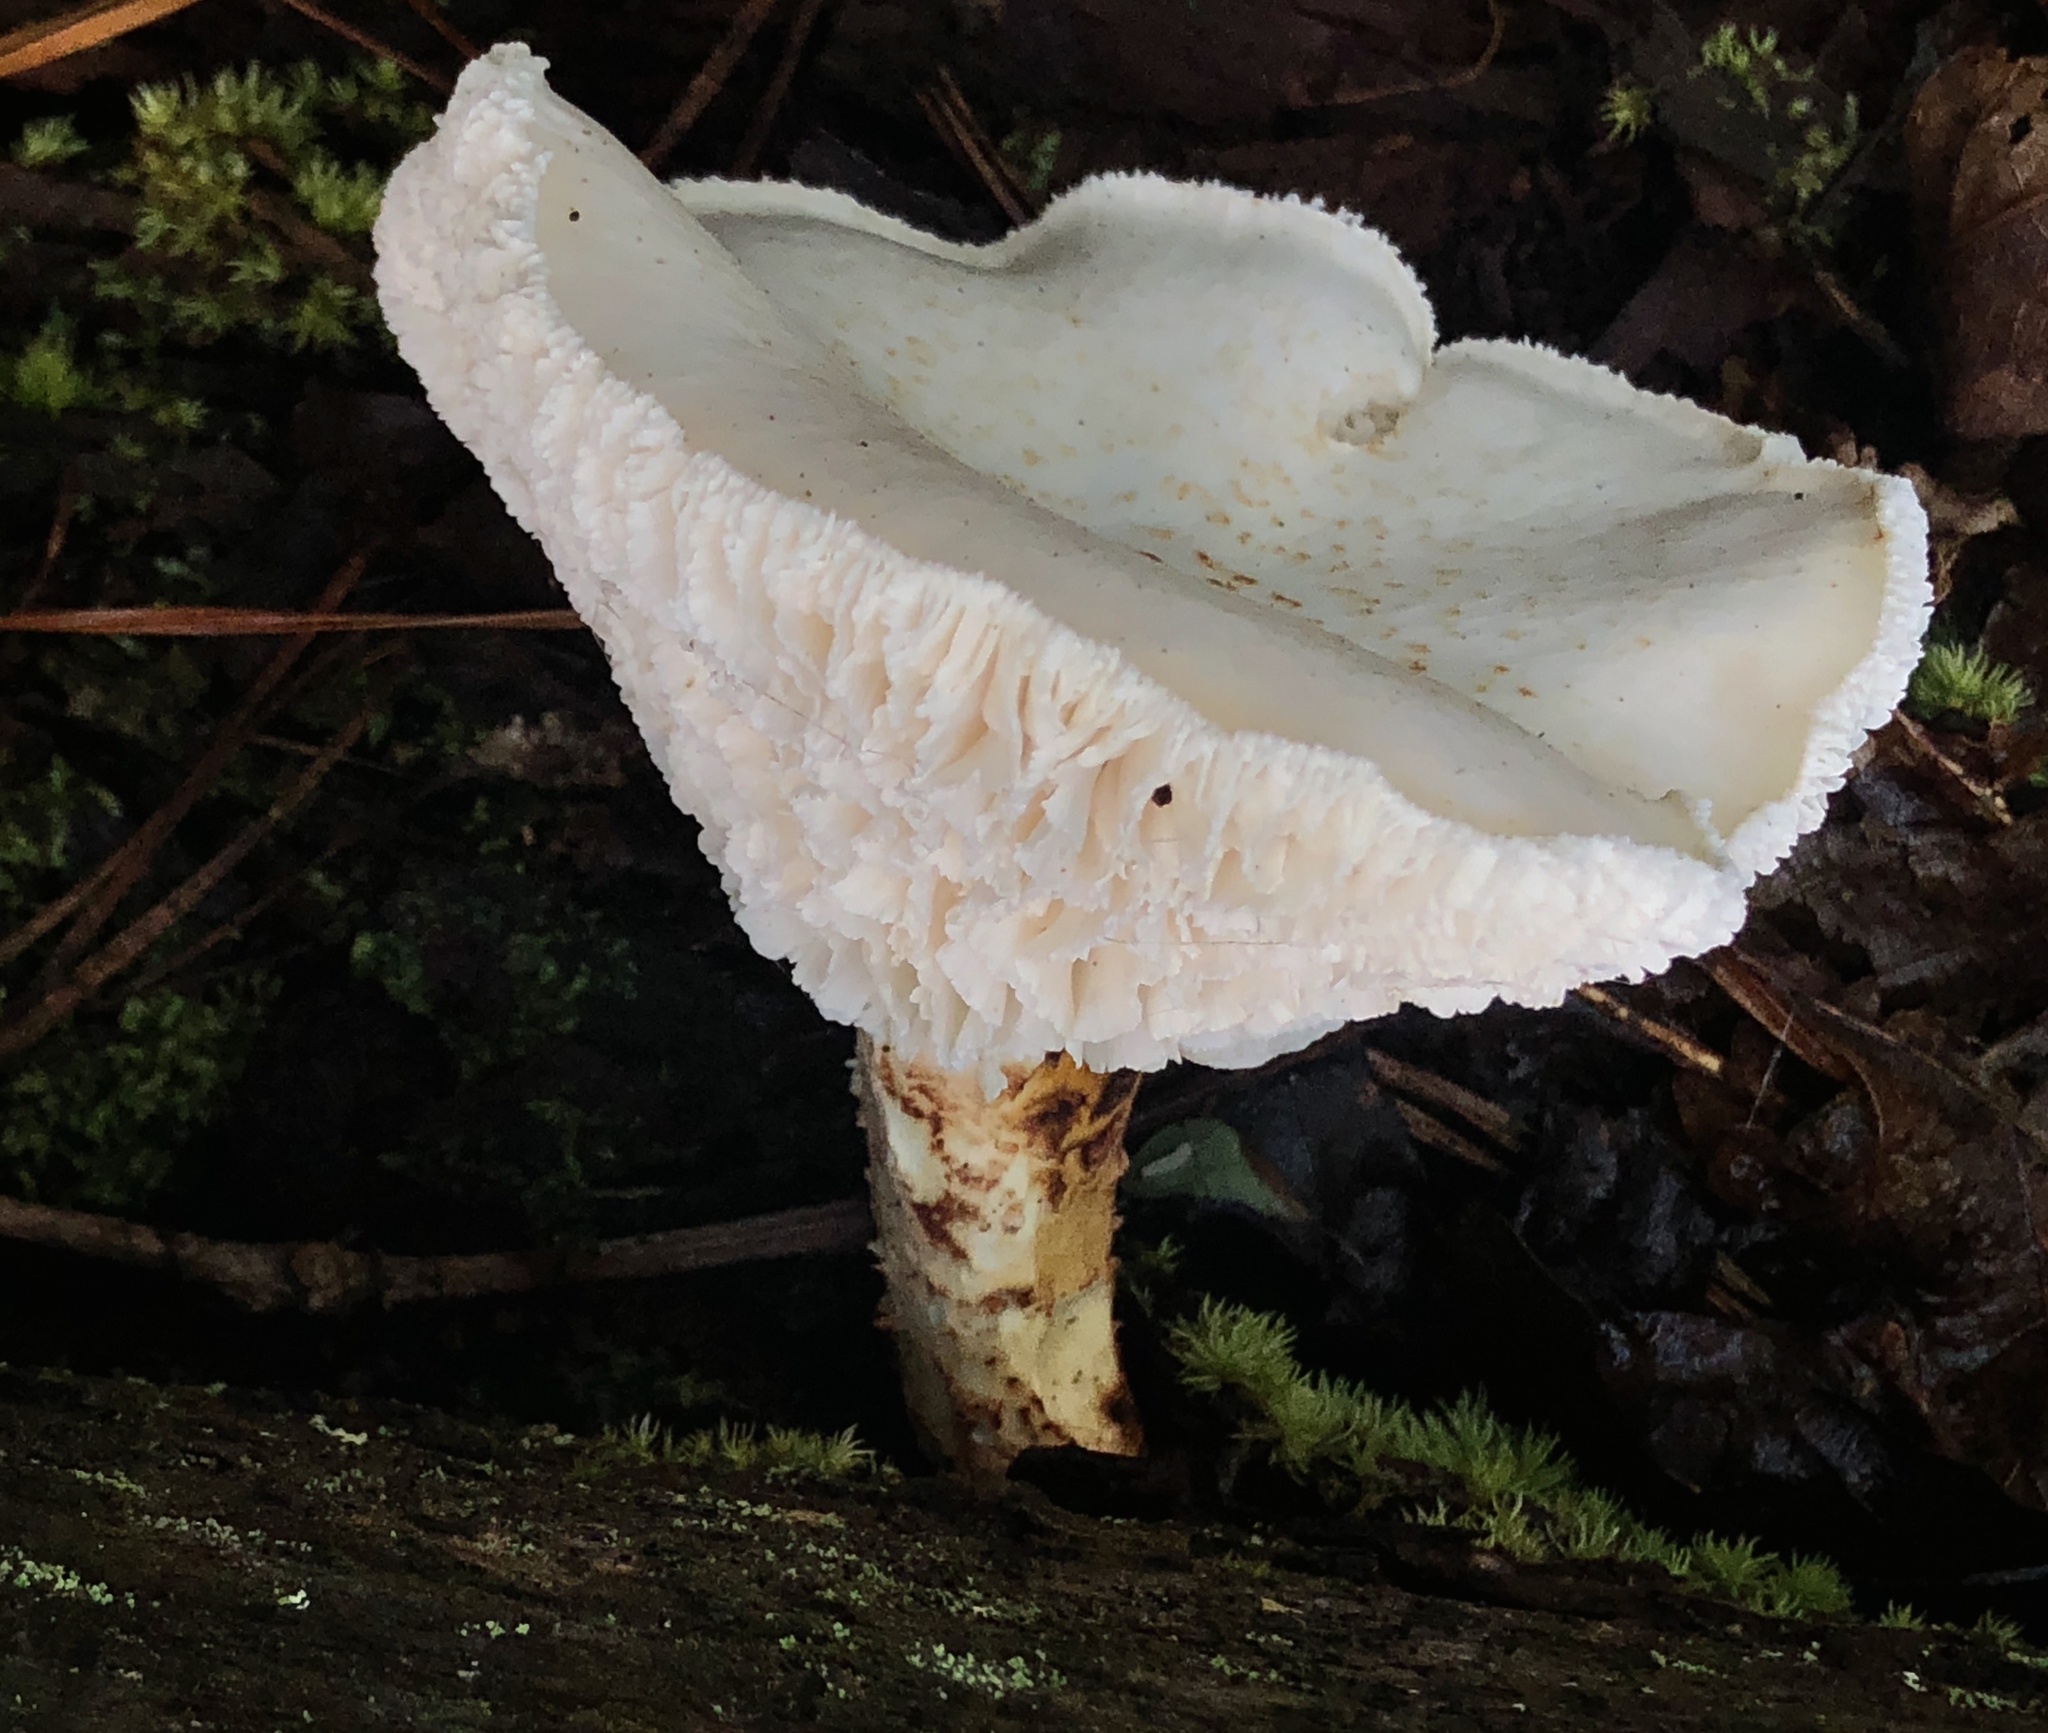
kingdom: Fungi
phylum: Basidiomycota
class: Agaricomycetes
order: Gloeophyllales
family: Gloeophyllaceae
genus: Neolentinus
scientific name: Neolentinus lepideus
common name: Scaly sawgill
